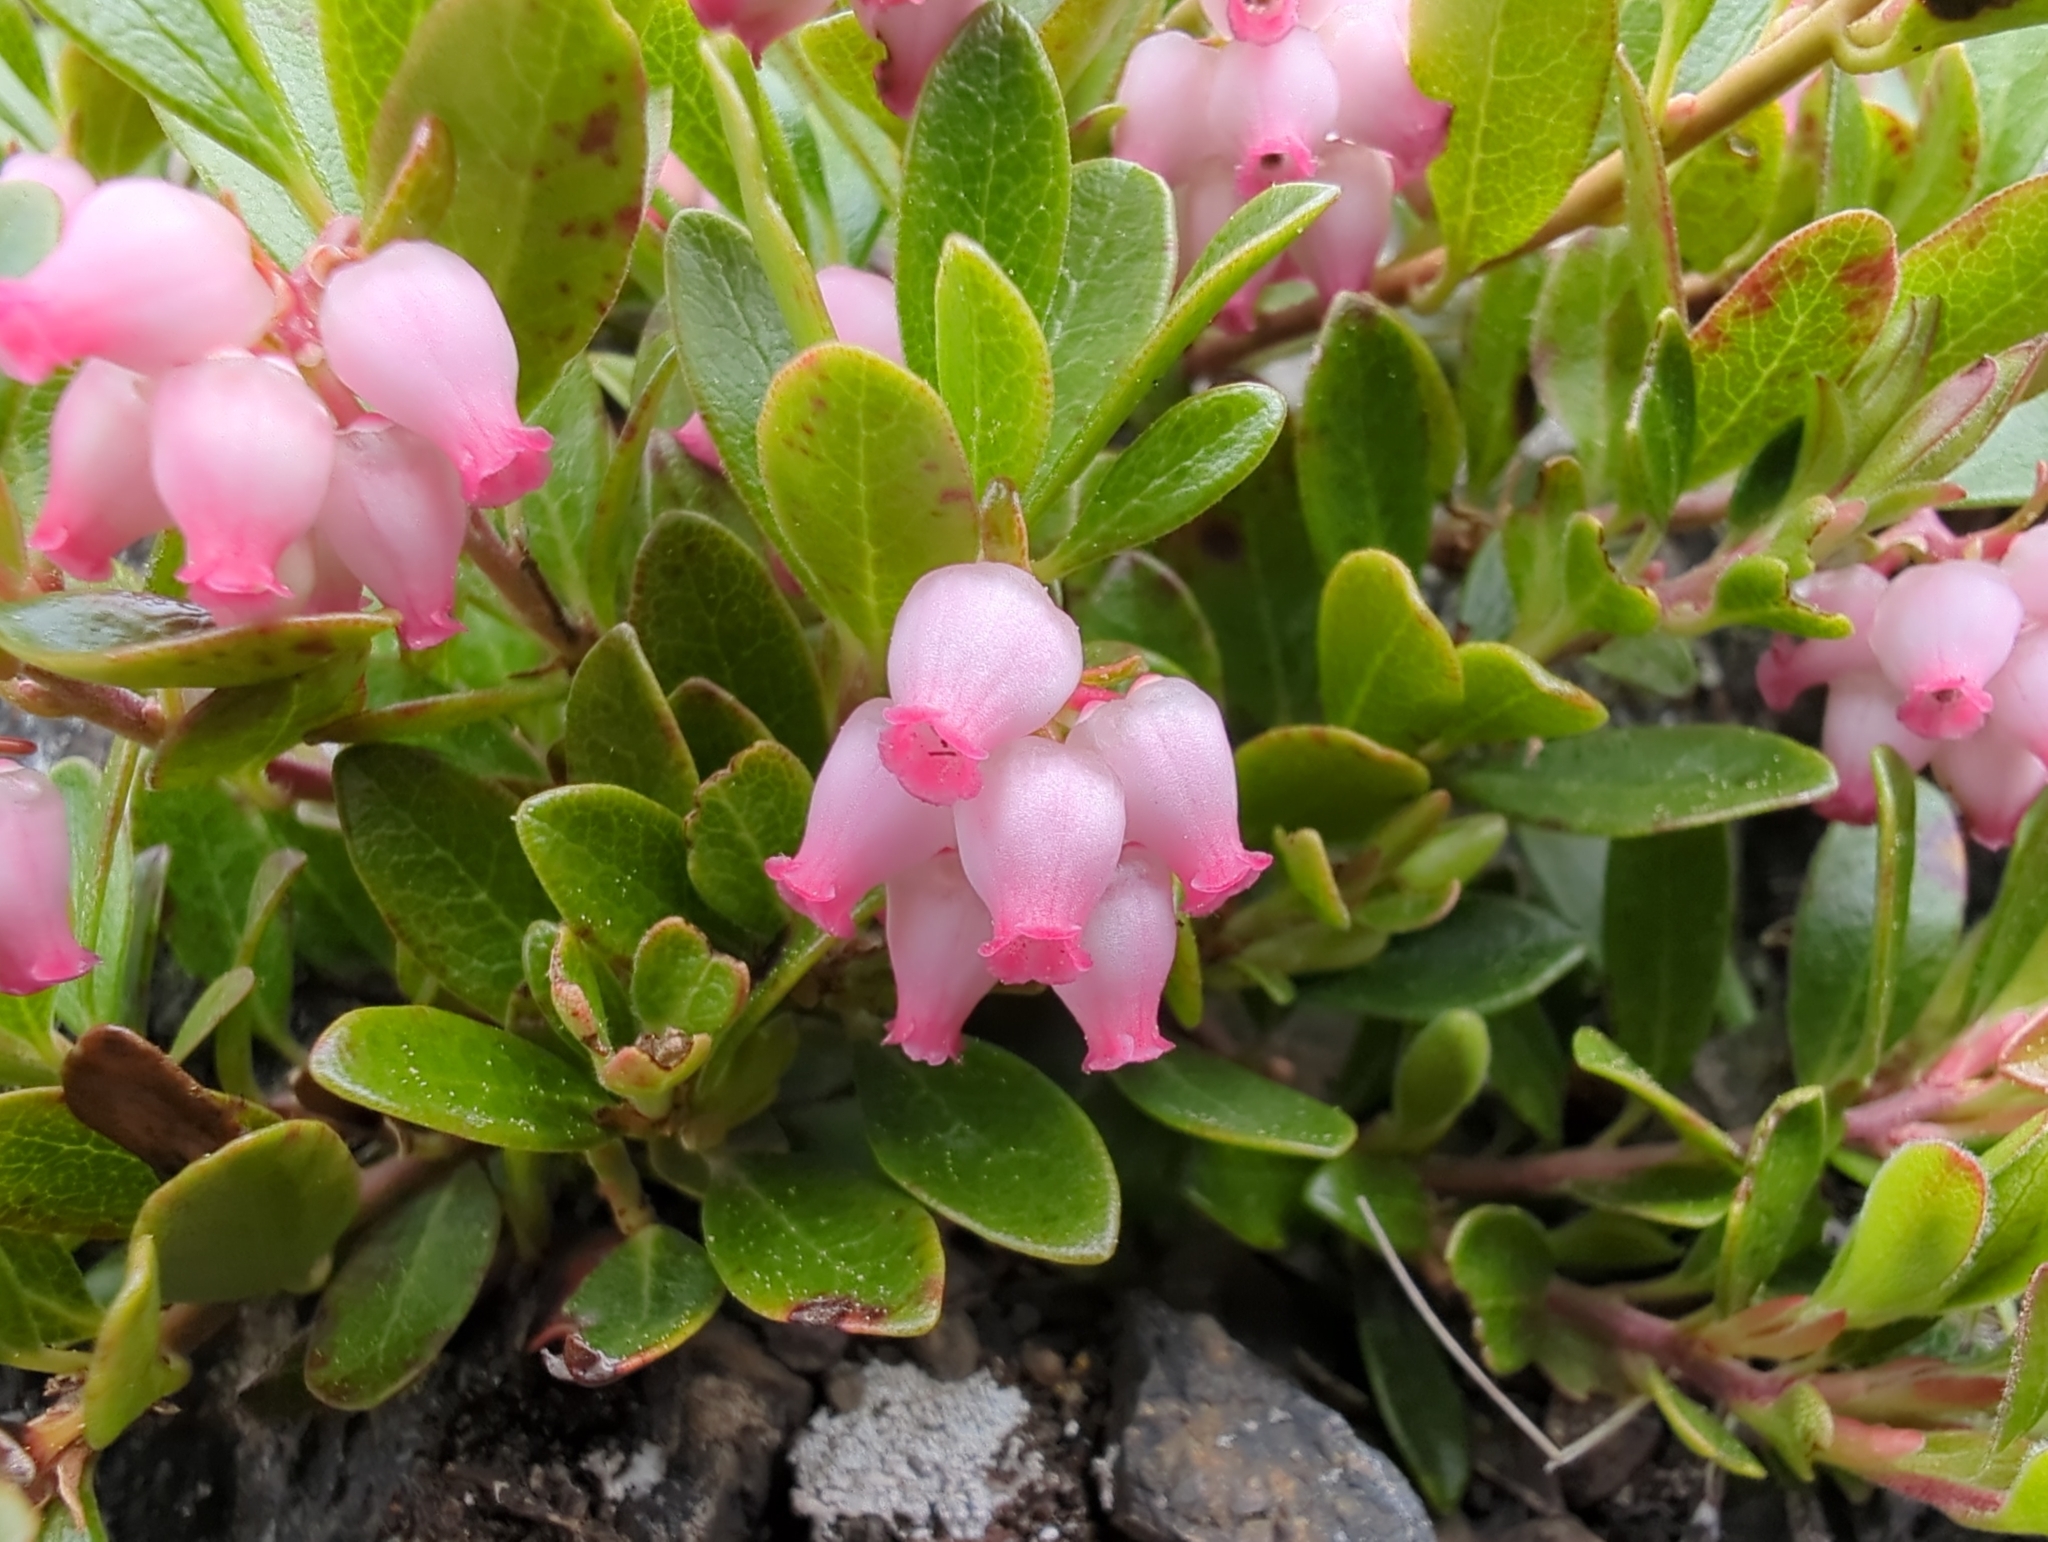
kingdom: Plantae
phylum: Tracheophyta
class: Magnoliopsida
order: Ericales
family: Ericaceae
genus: Arctostaphylos
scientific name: Arctostaphylos uva-ursi
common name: Bearberry
